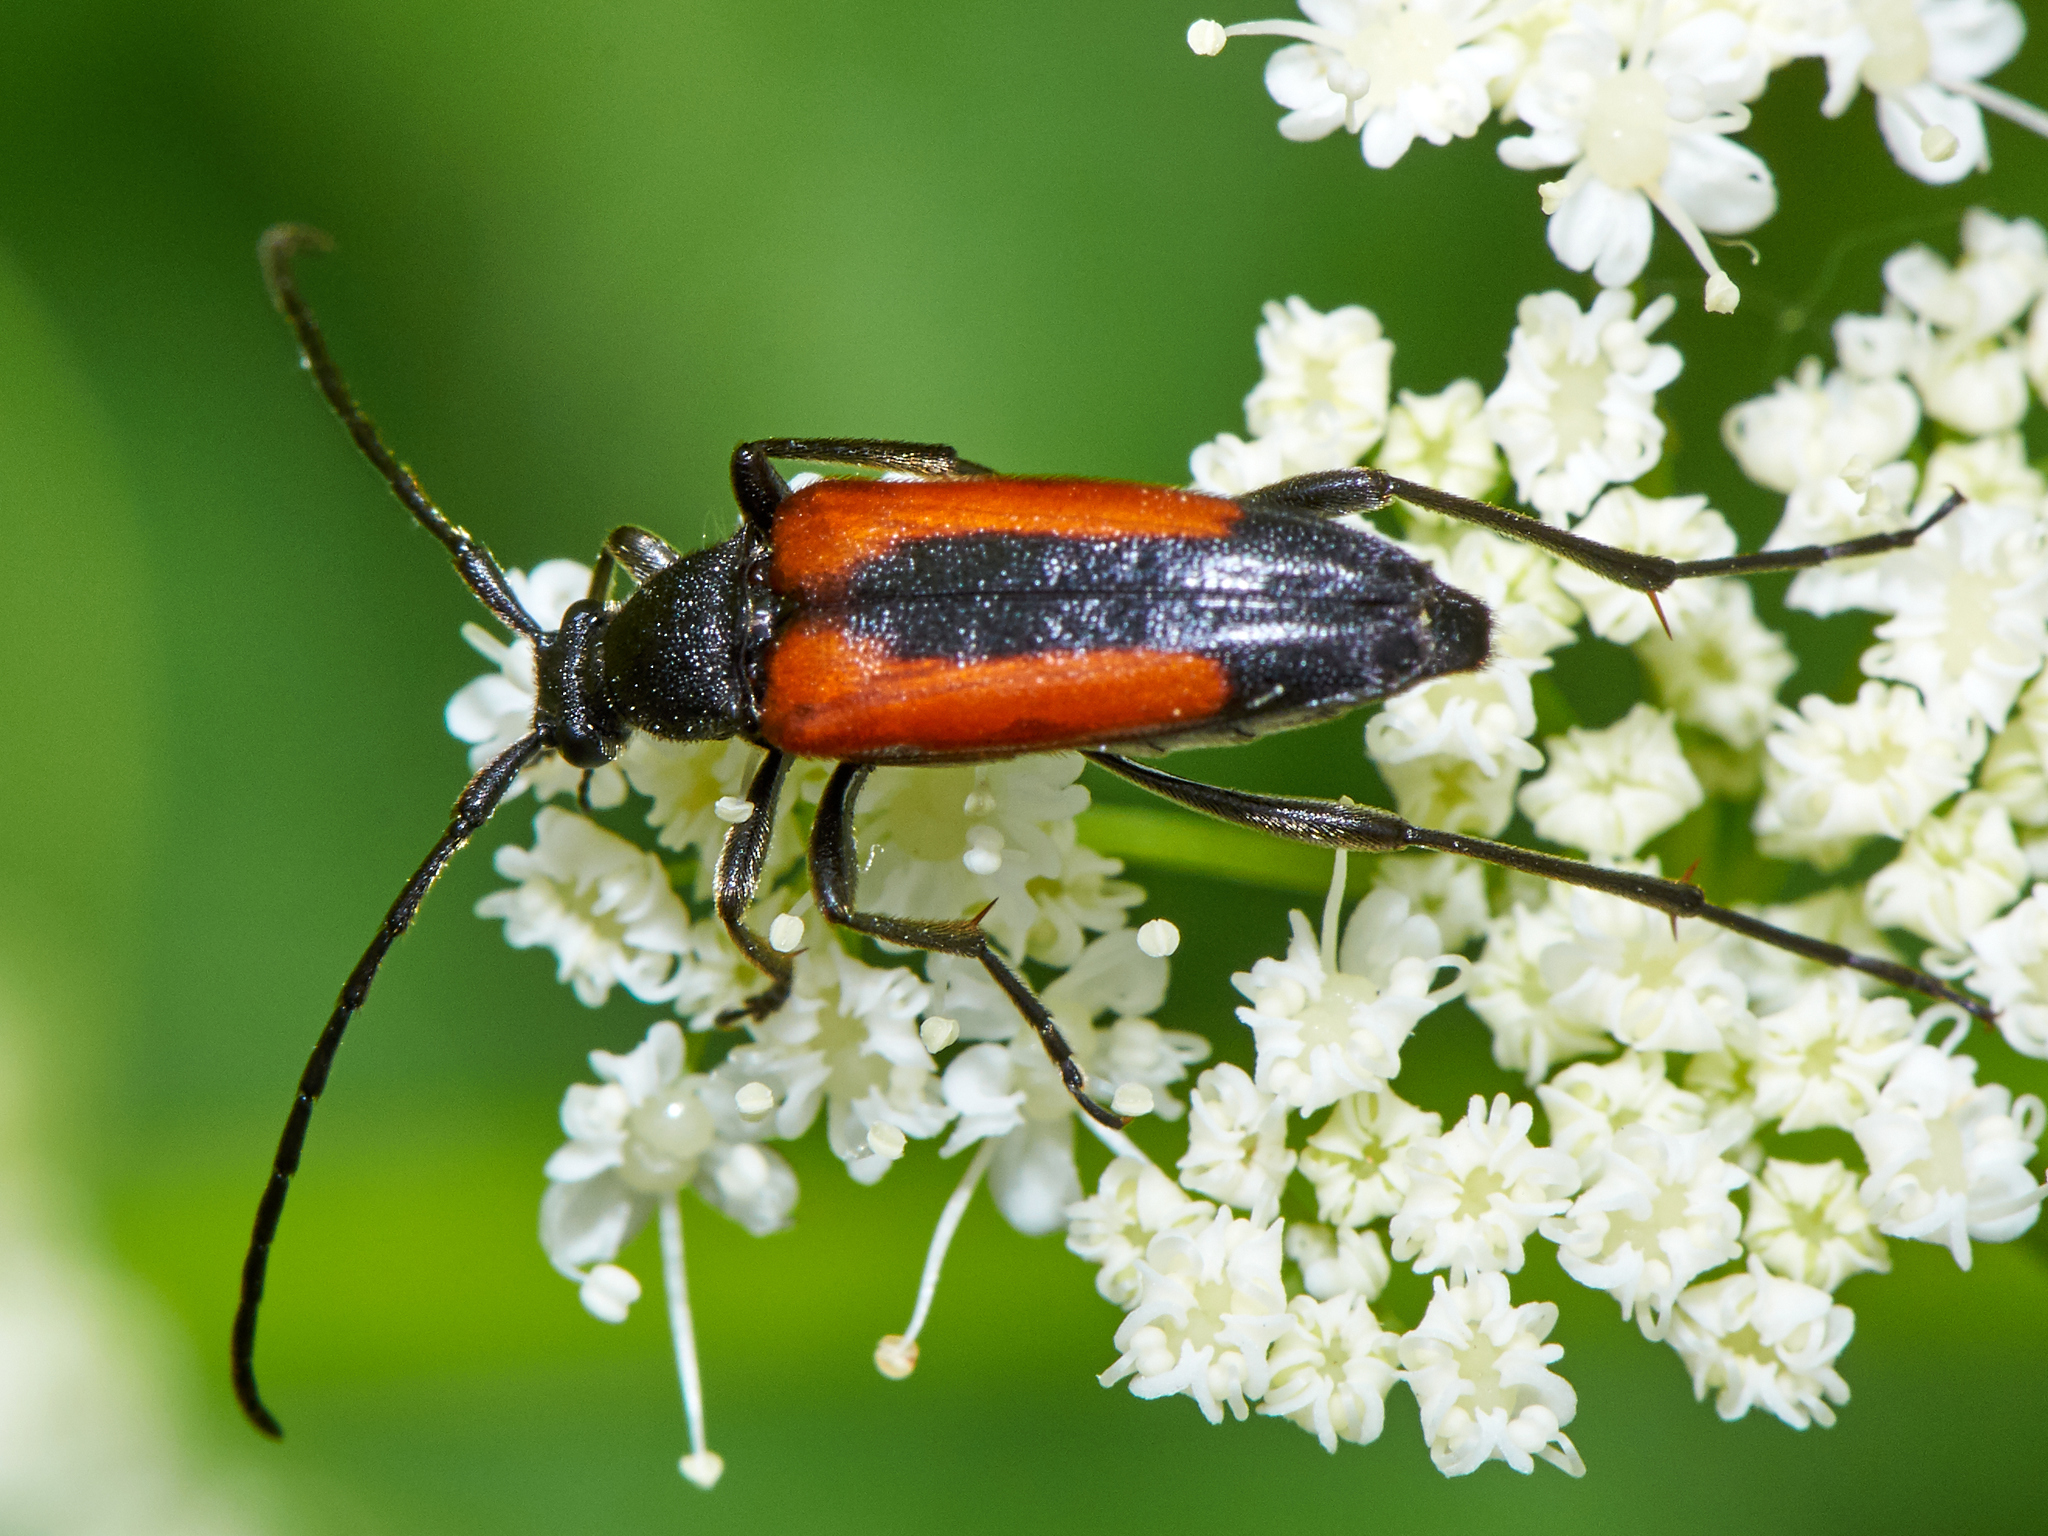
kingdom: Animalia
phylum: Arthropoda
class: Insecta
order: Coleoptera
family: Cerambycidae
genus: Stenurella
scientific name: Stenurella melanura
